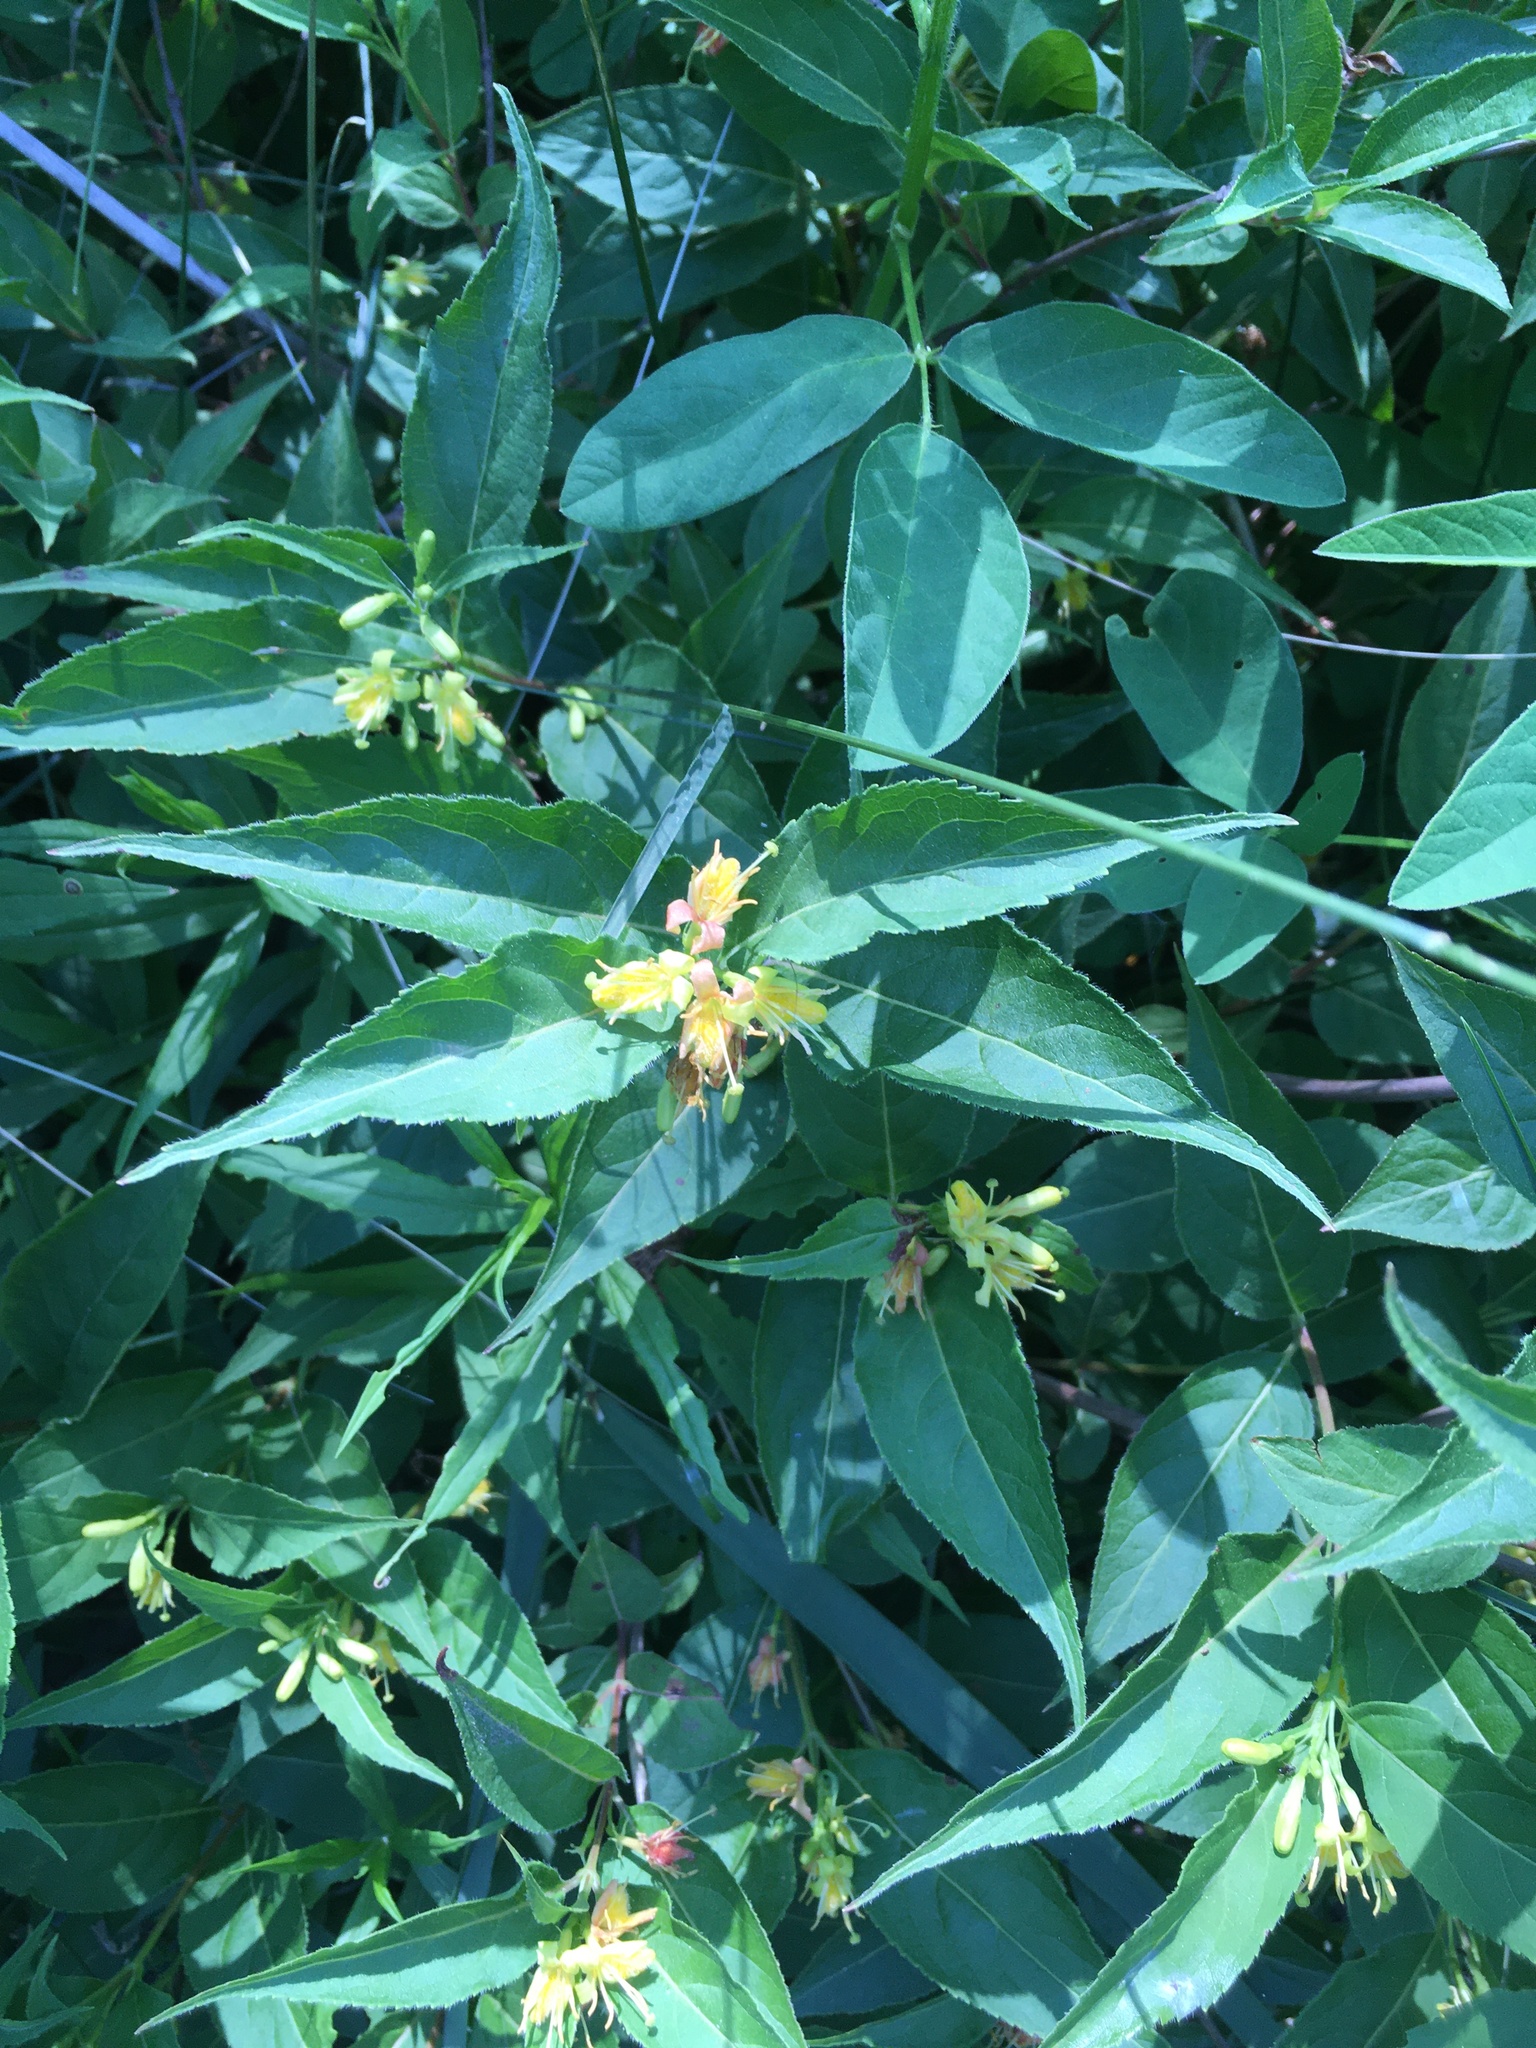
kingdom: Plantae
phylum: Tracheophyta
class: Magnoliopsida
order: Dipsacales
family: Caprifoliaceae
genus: Diervilla
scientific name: Diervilla lonicera
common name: Bush-honeysuckle
